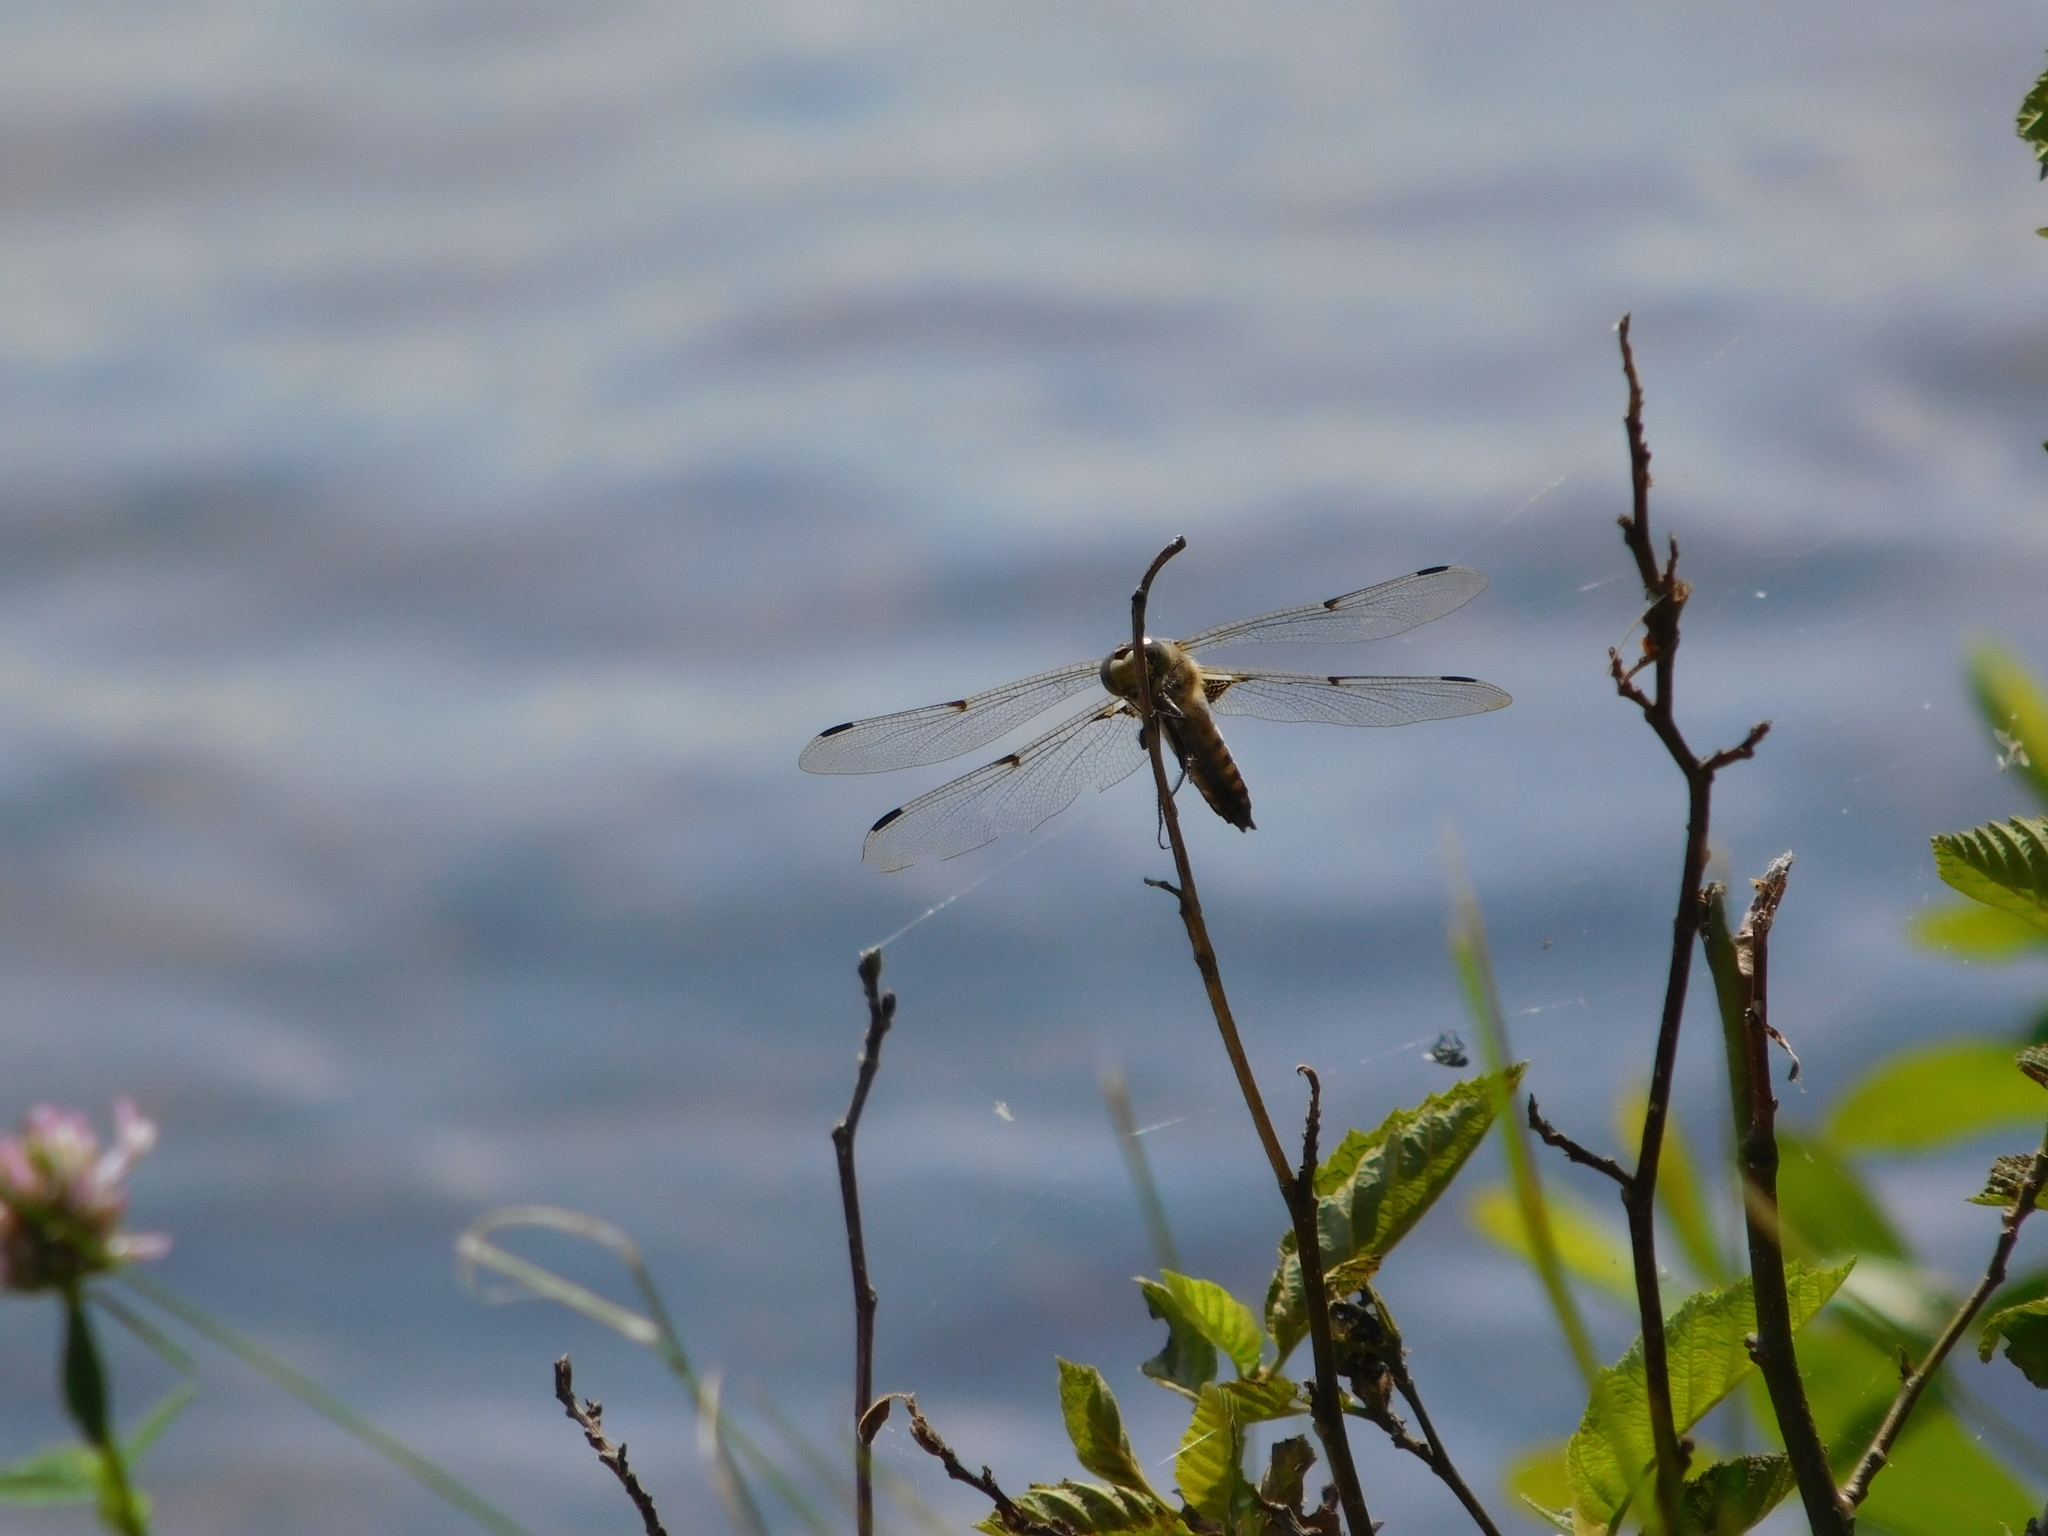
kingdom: Animalia
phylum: Arthropoda
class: Insecta
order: Odonata
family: Libellulidae
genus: Libellula
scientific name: Libellula quadrimaculata
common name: Four-spotted chaser
